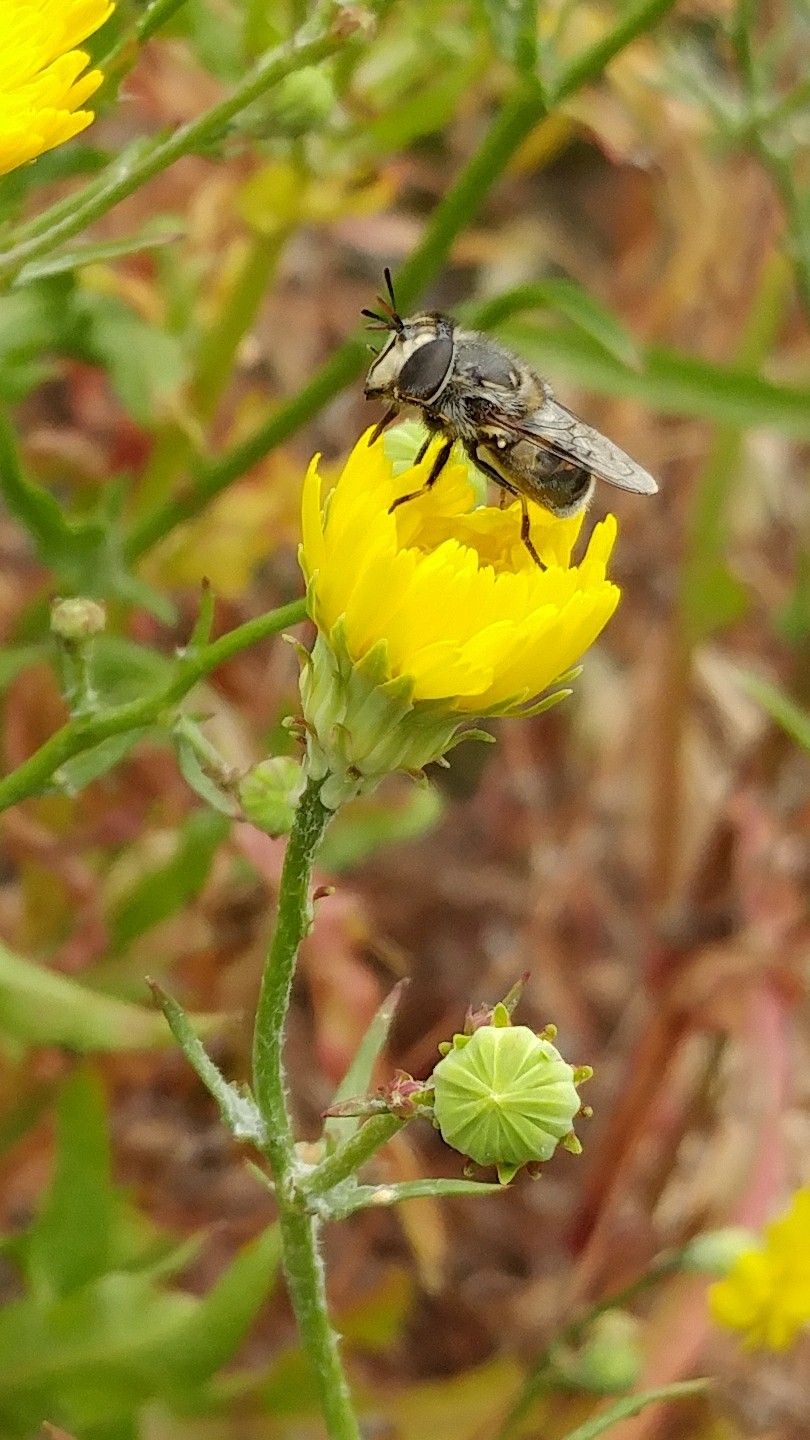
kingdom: Animalia
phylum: Arthropoda
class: Insecta
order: Diptera
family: Syrphidae
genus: Copestylum
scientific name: Copestylum lentum
